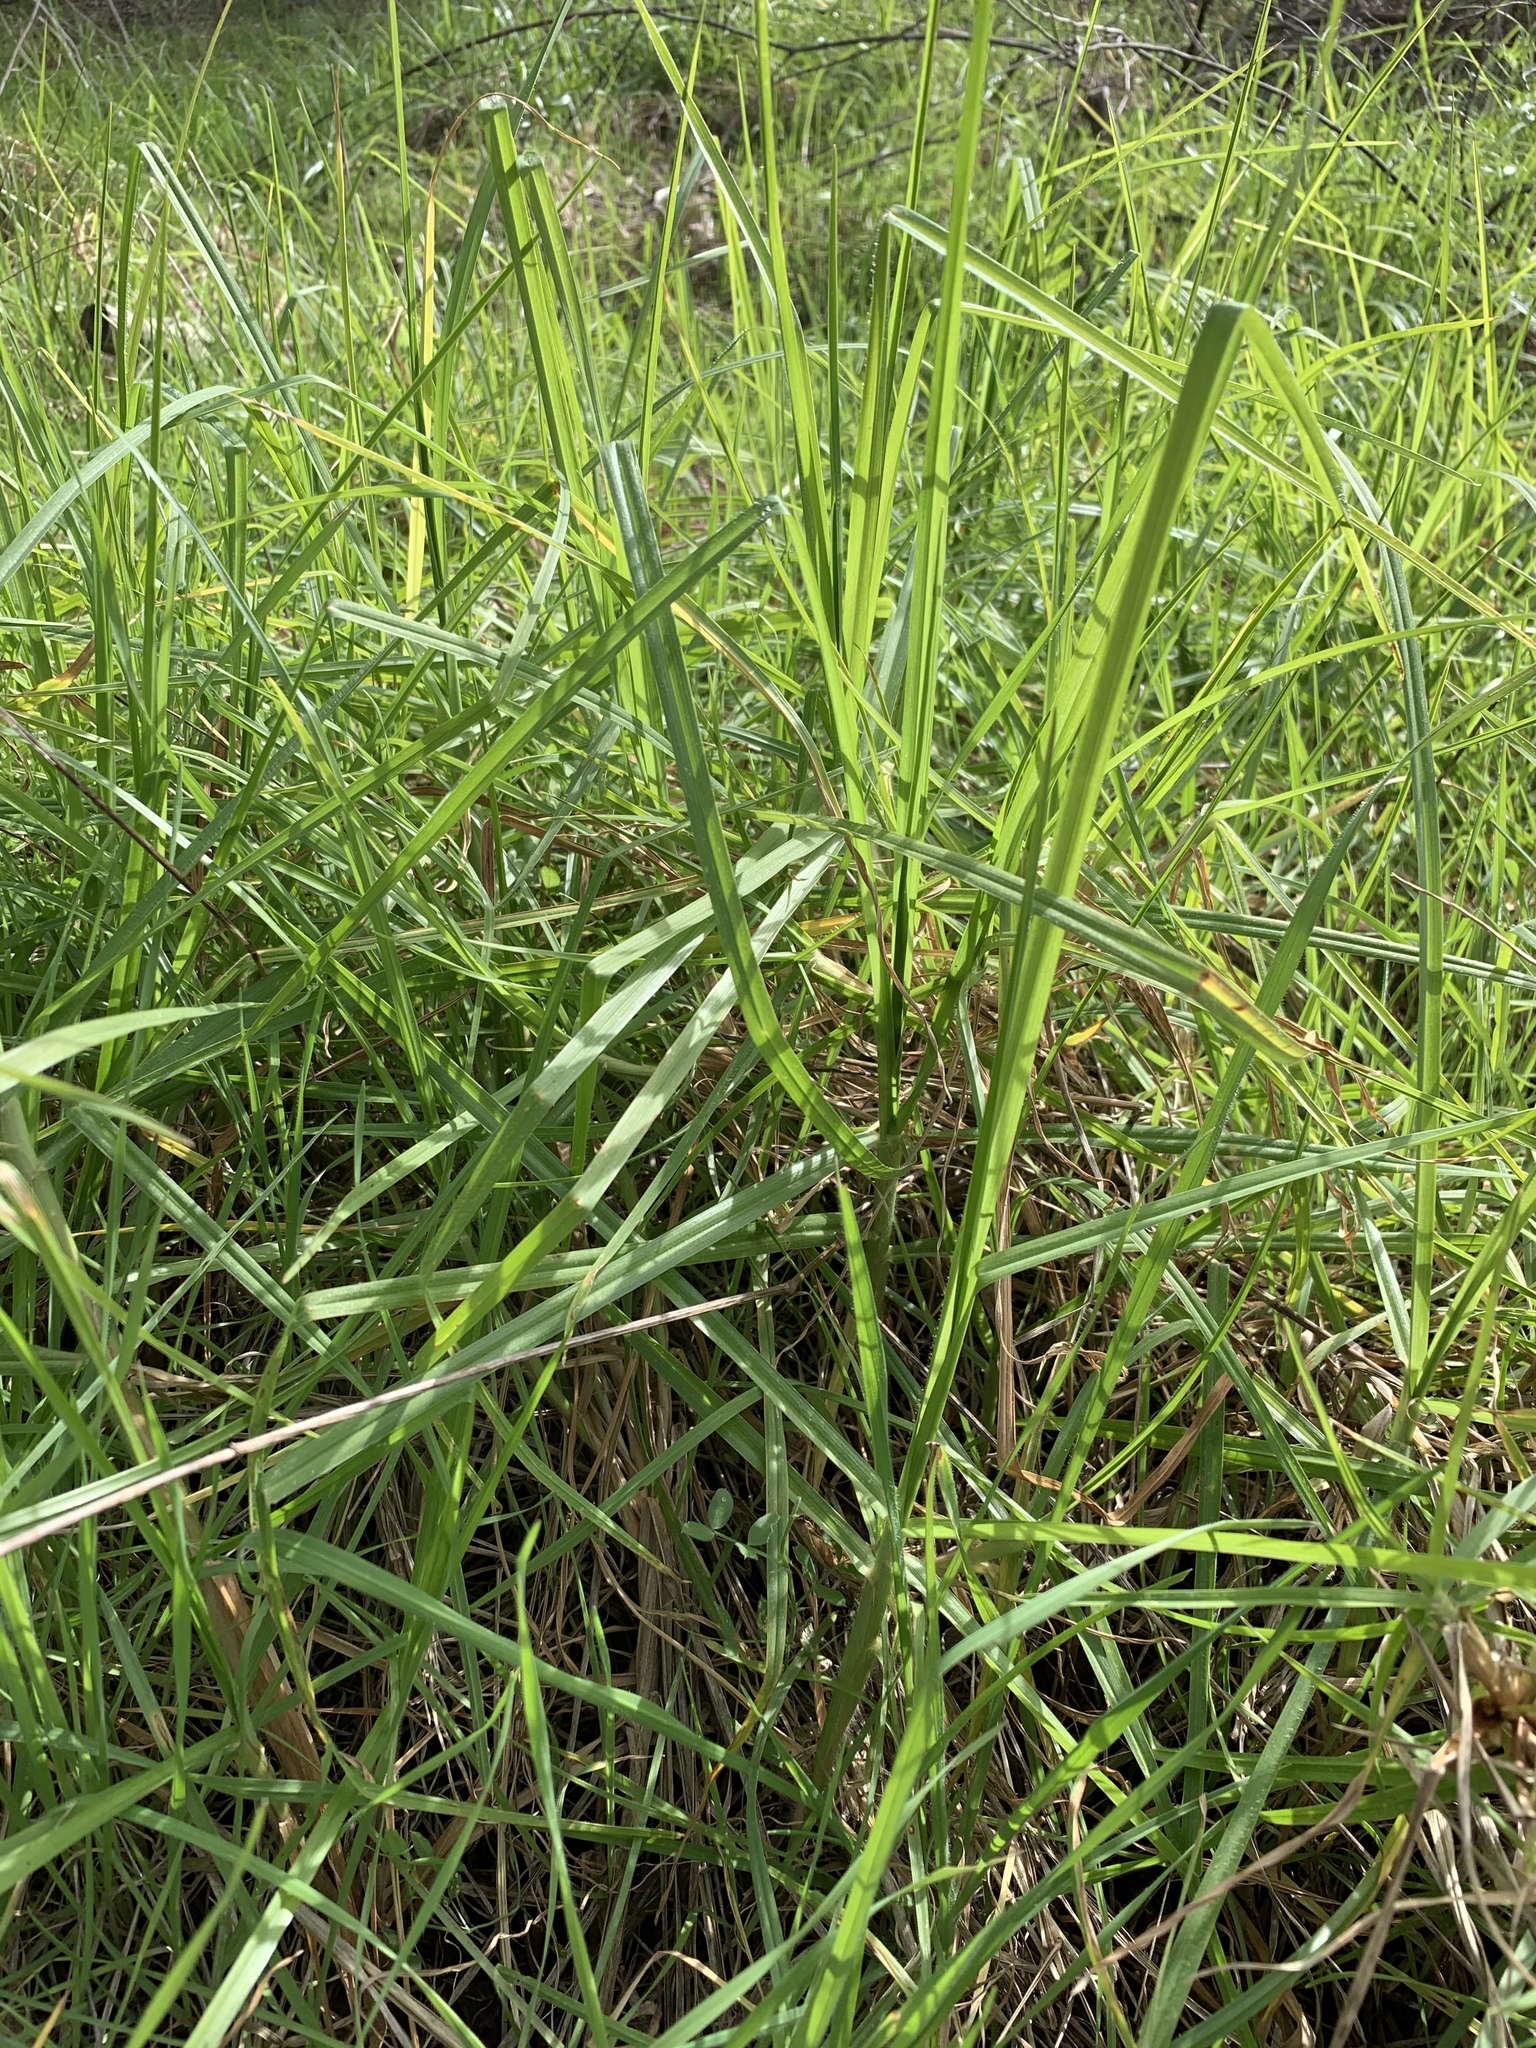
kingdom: Plantae
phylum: Tracheophyta
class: Liliopsida
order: Poales
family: Poaceae
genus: Cenchrus
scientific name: Cenchrus clandestinus
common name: Kikuyugrass
